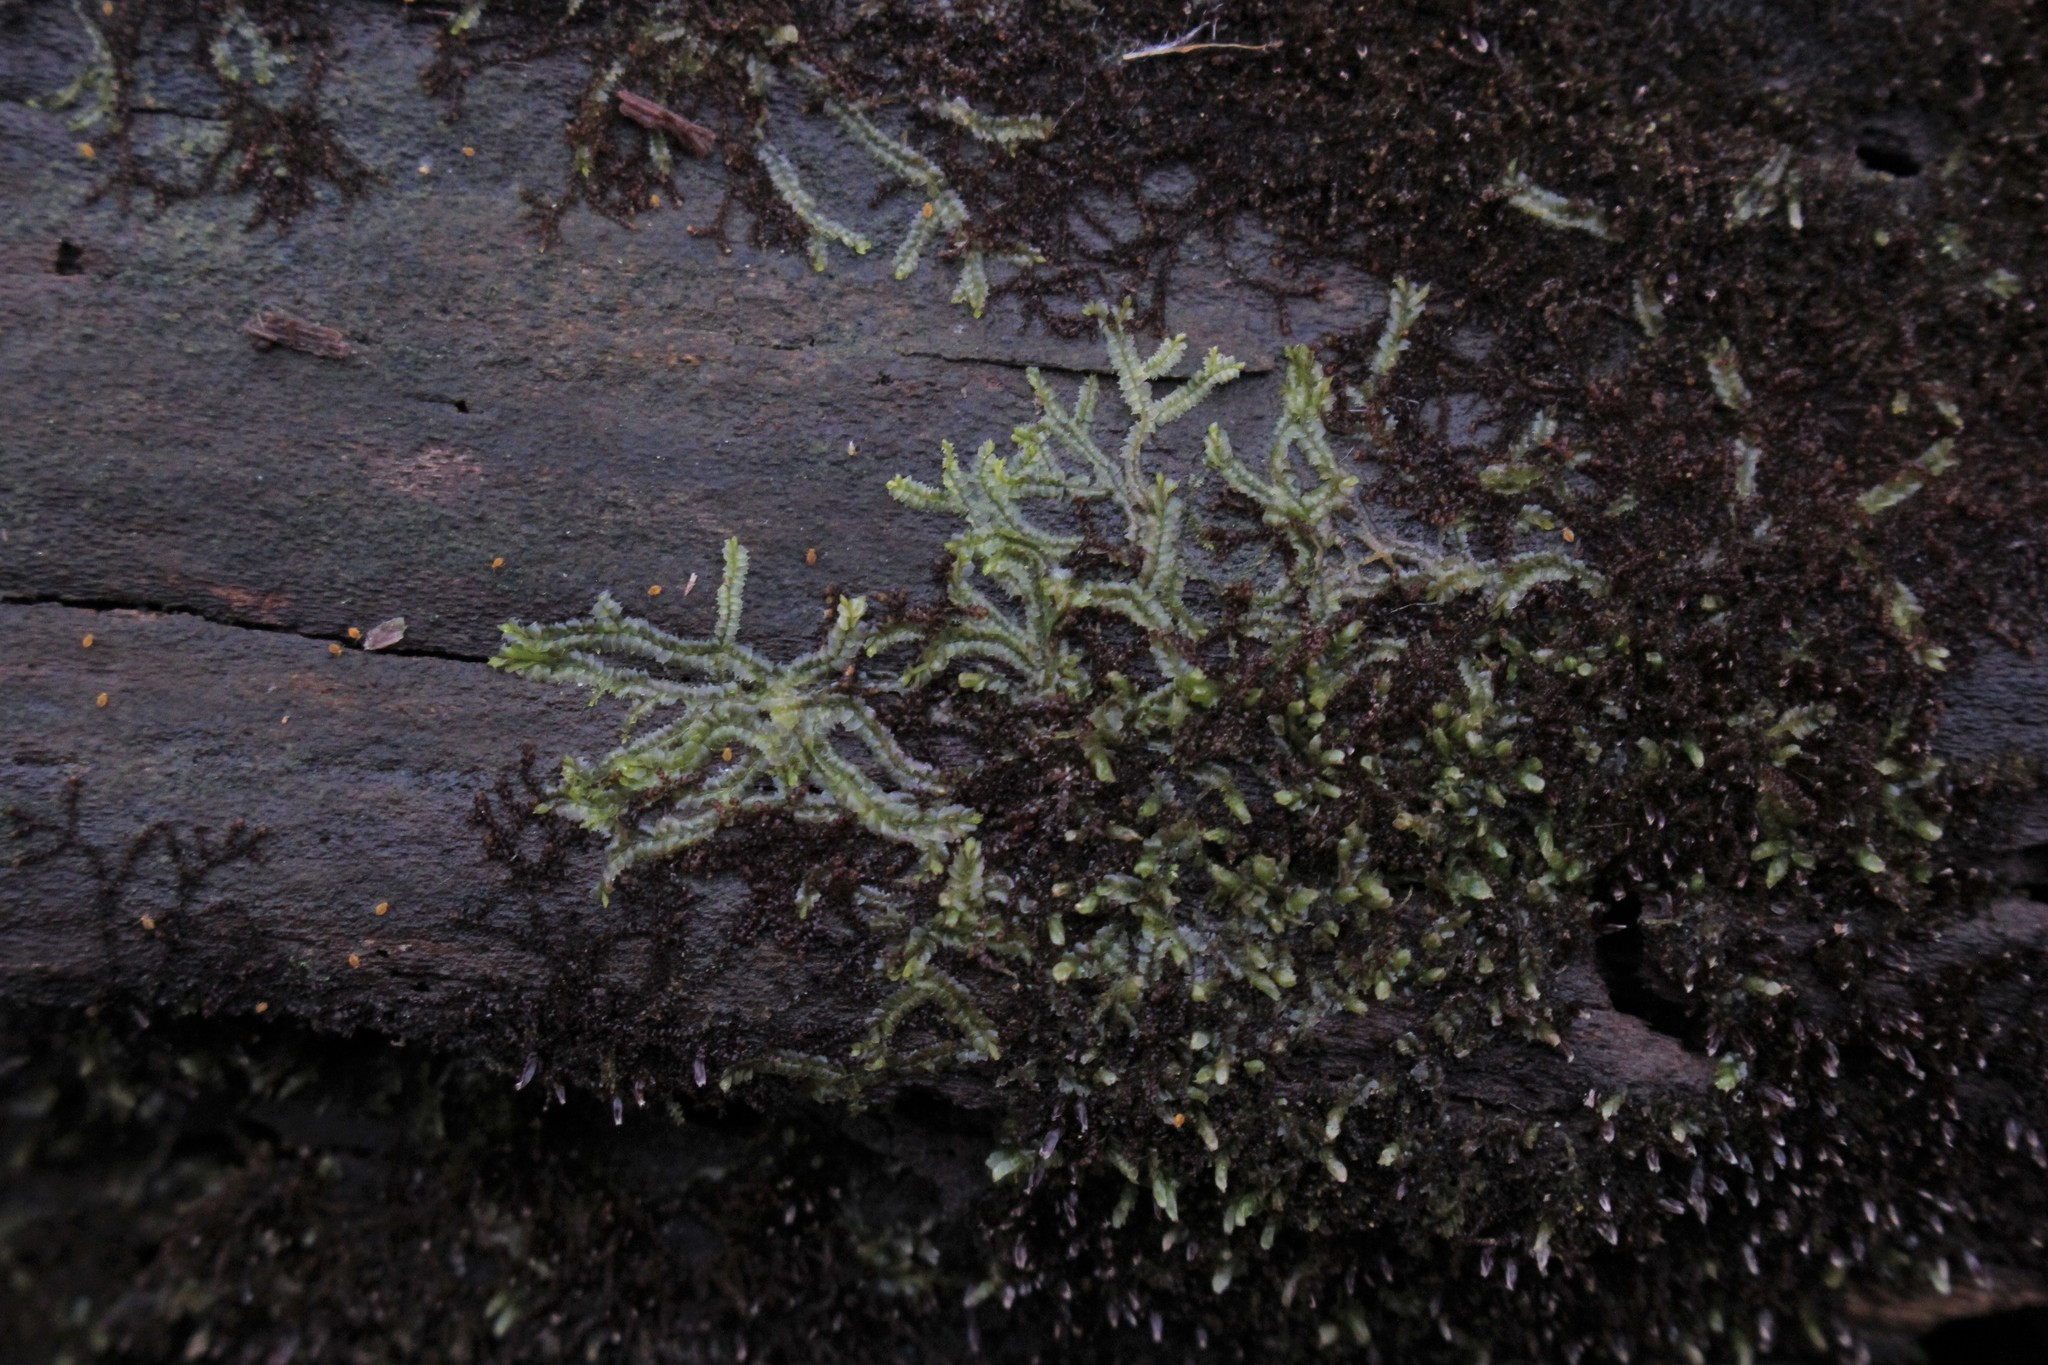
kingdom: Plantae
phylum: Marchantiophyta
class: Jungermanniopsida
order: Jungermanniales
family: Lophocoleaceae
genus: Lophocolea
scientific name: Lophocolea heterophylla
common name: Variable-leaved crestwort
